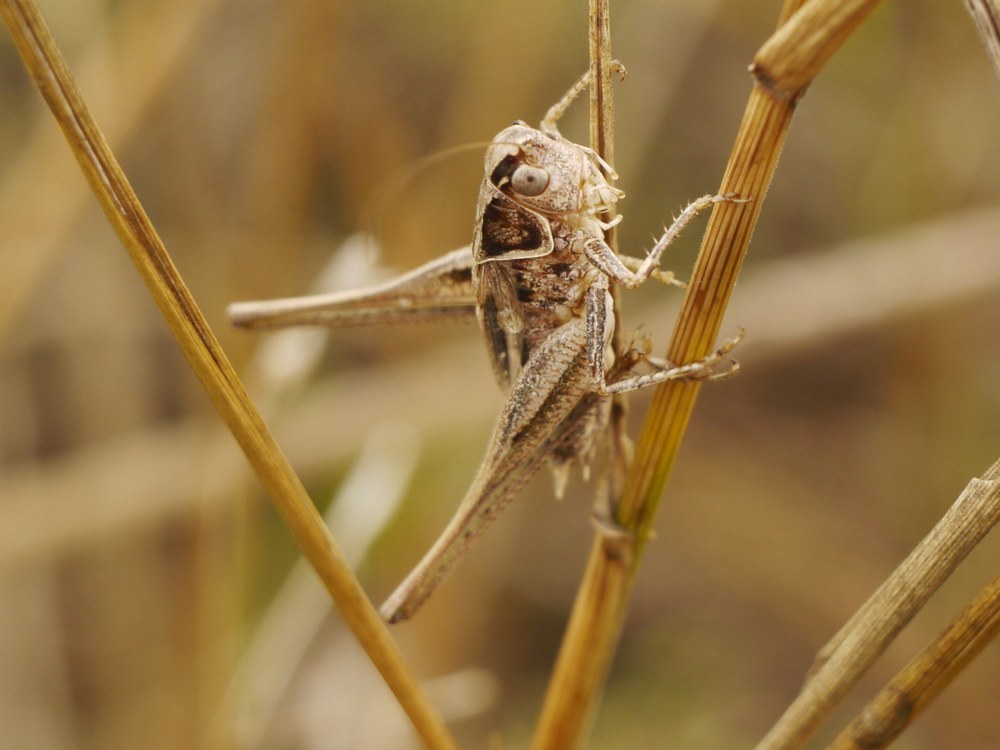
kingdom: Animalia
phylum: Arthropoda
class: Insecta
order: Orthoptera
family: Tettigoniidae
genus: Tessellana
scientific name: Tessellana veyseli
